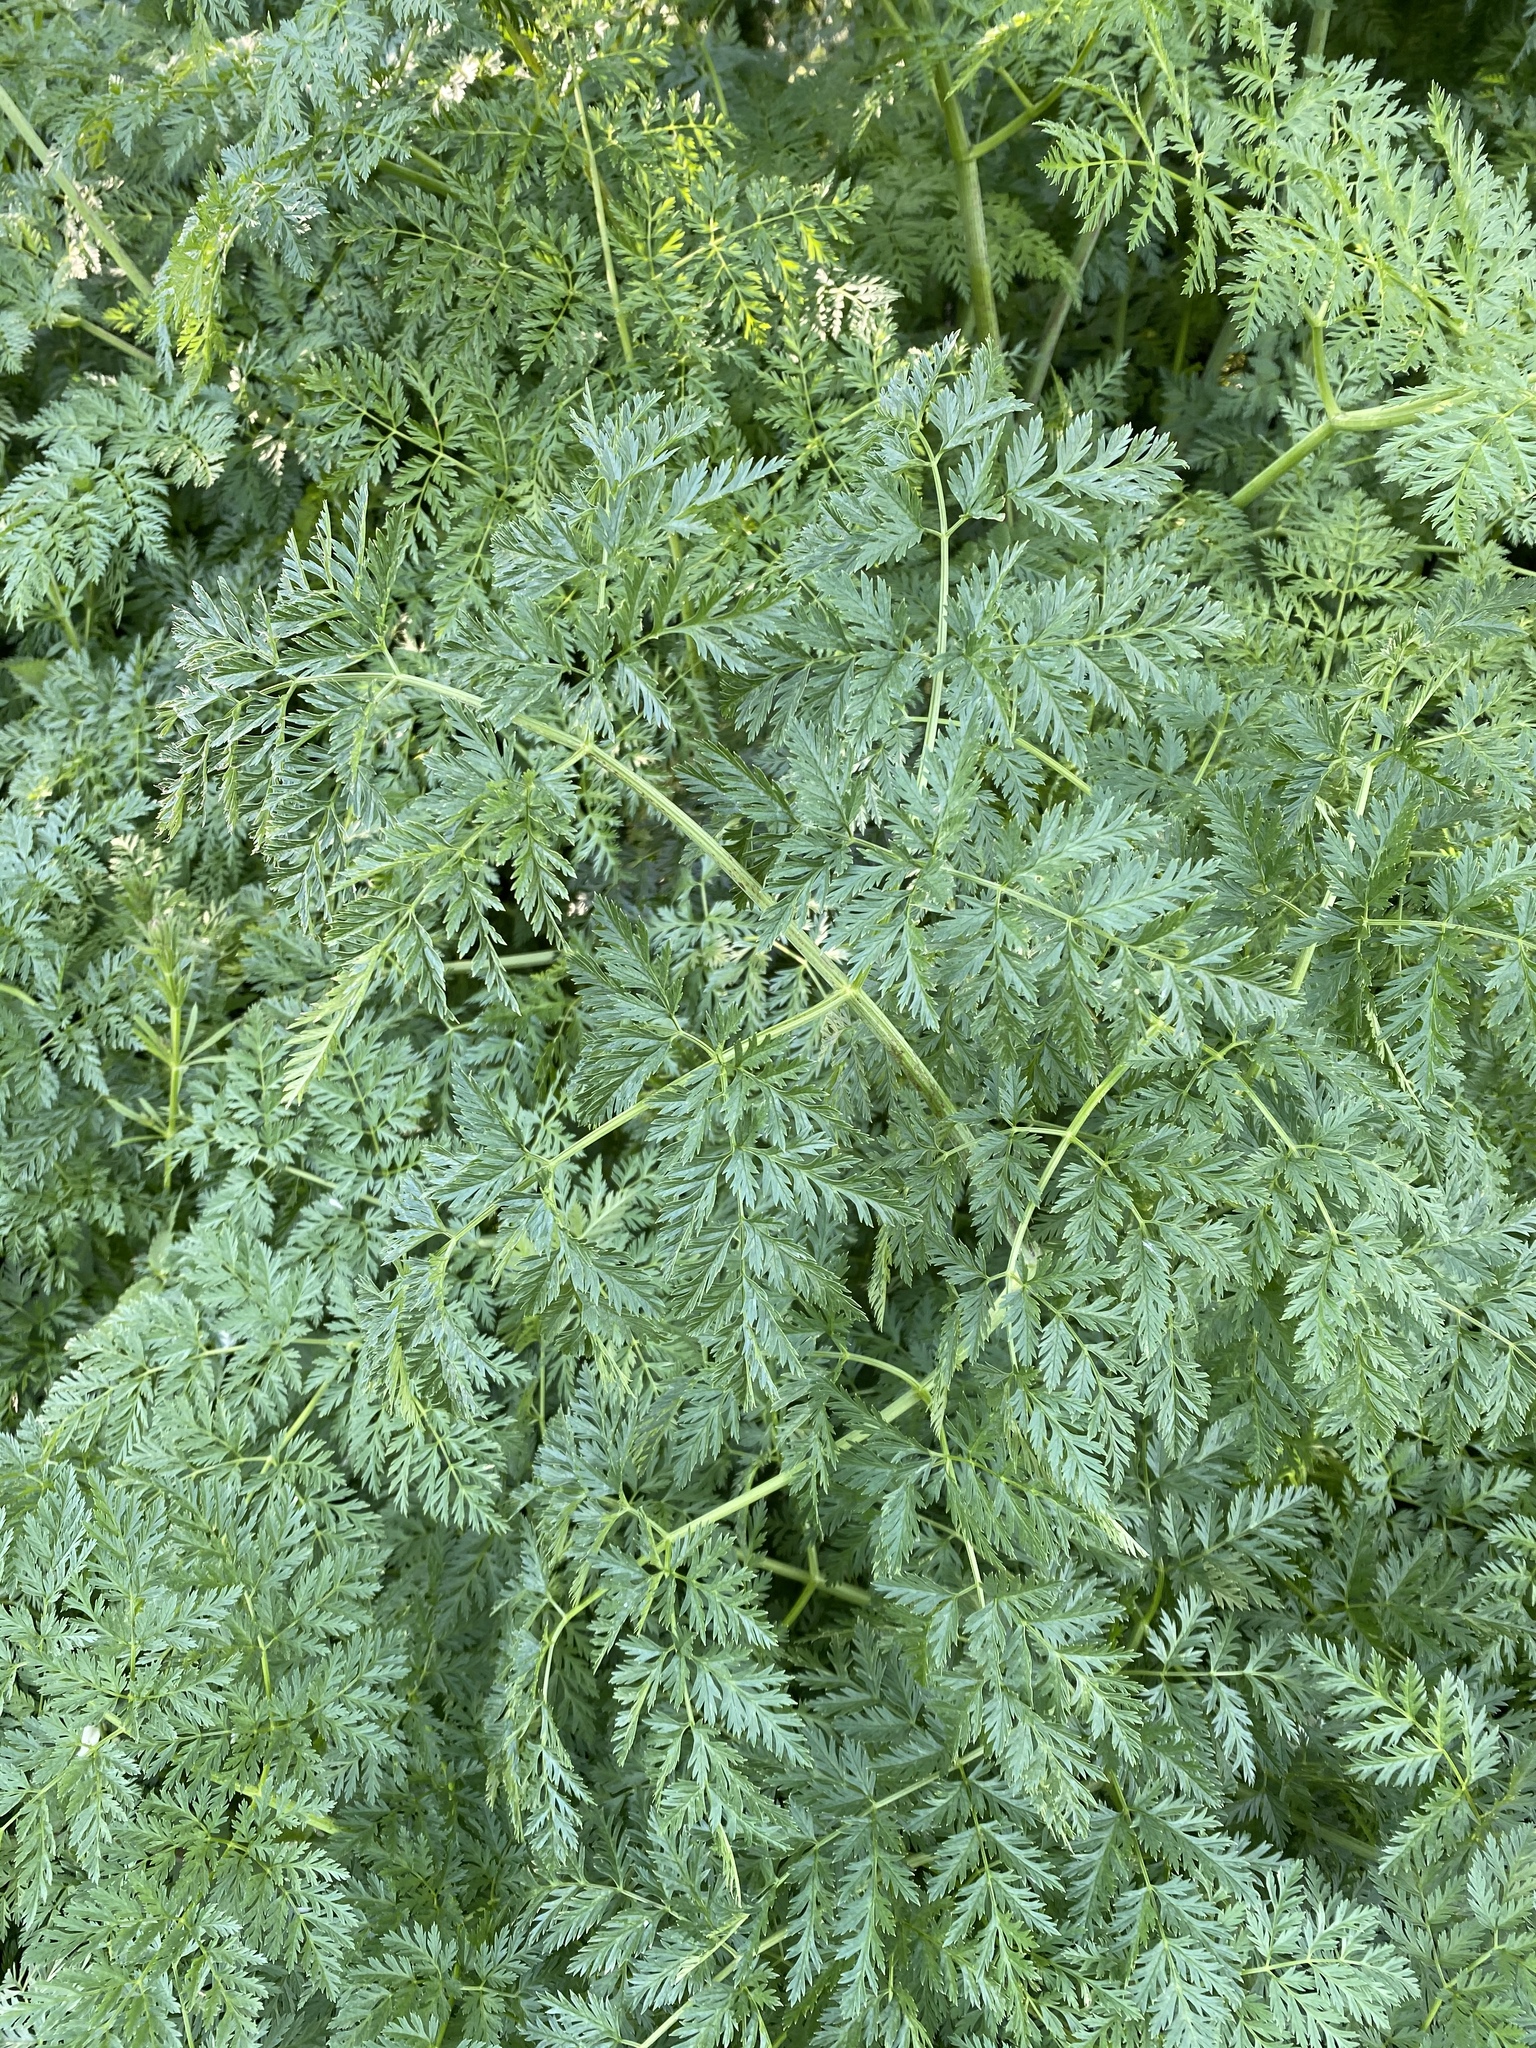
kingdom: Plantae
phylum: Tracheophyta
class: Magnoliopsida
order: Apiales
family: Apiaceae
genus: Conium
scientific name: Conium maculatum
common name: Hemlock
